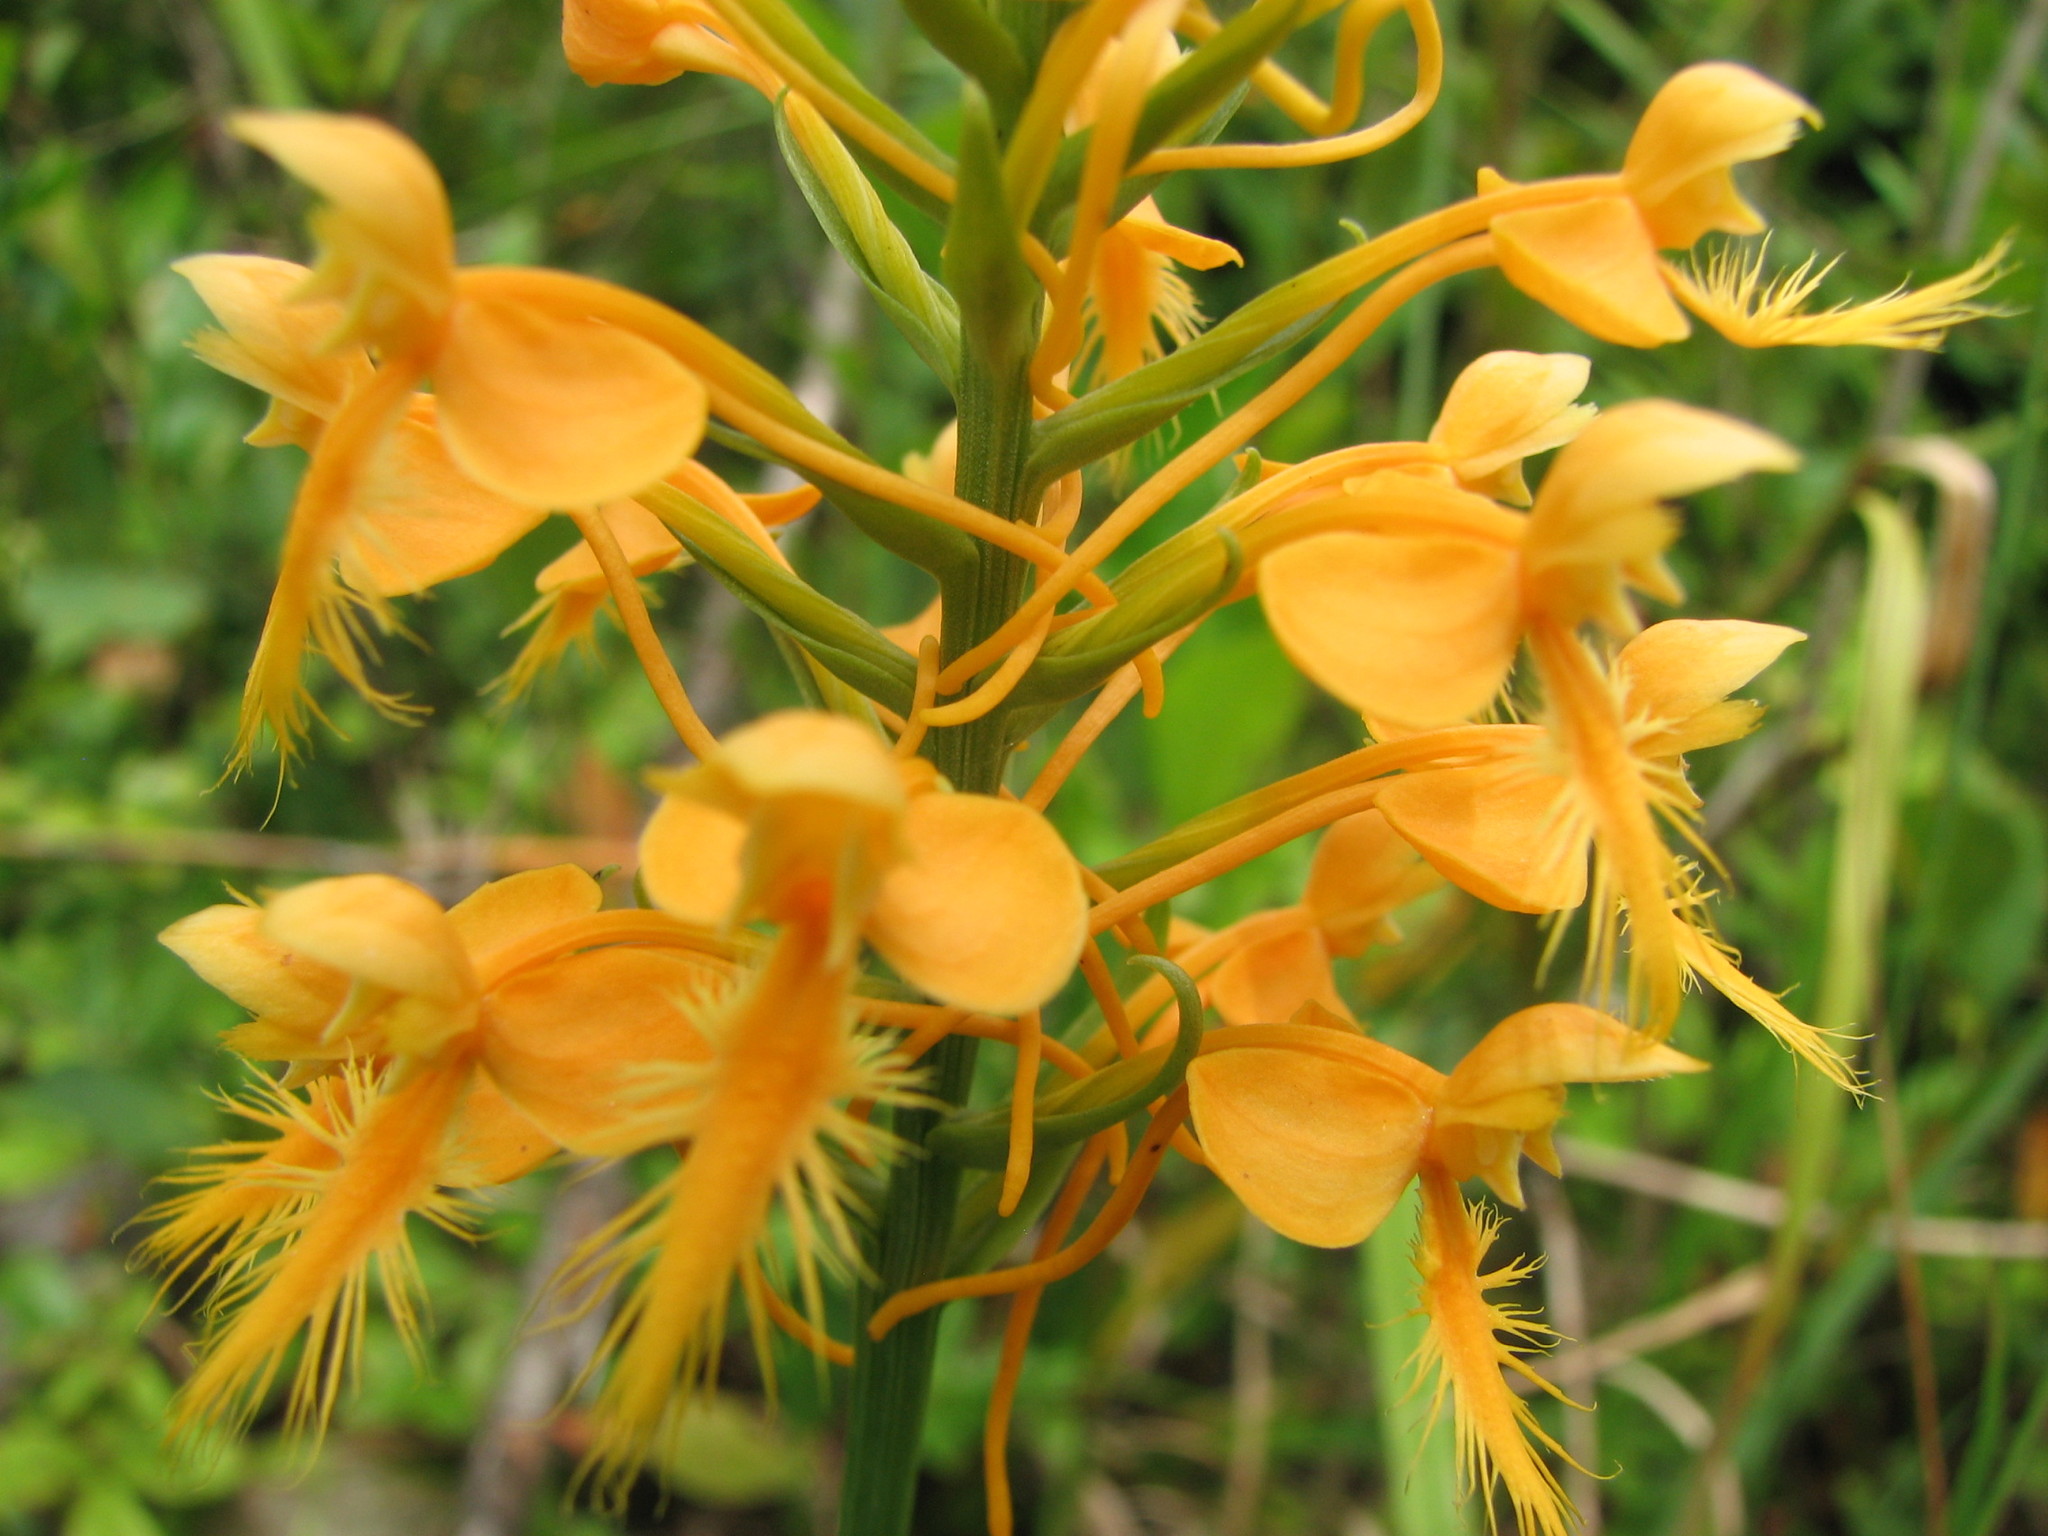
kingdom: Plantae
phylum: Tracheophyta
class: Liliopsida
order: Asparagales
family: Orchidaceae
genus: Platanthera
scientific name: Platanthera ciliaris
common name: Yellow fringed orchid
